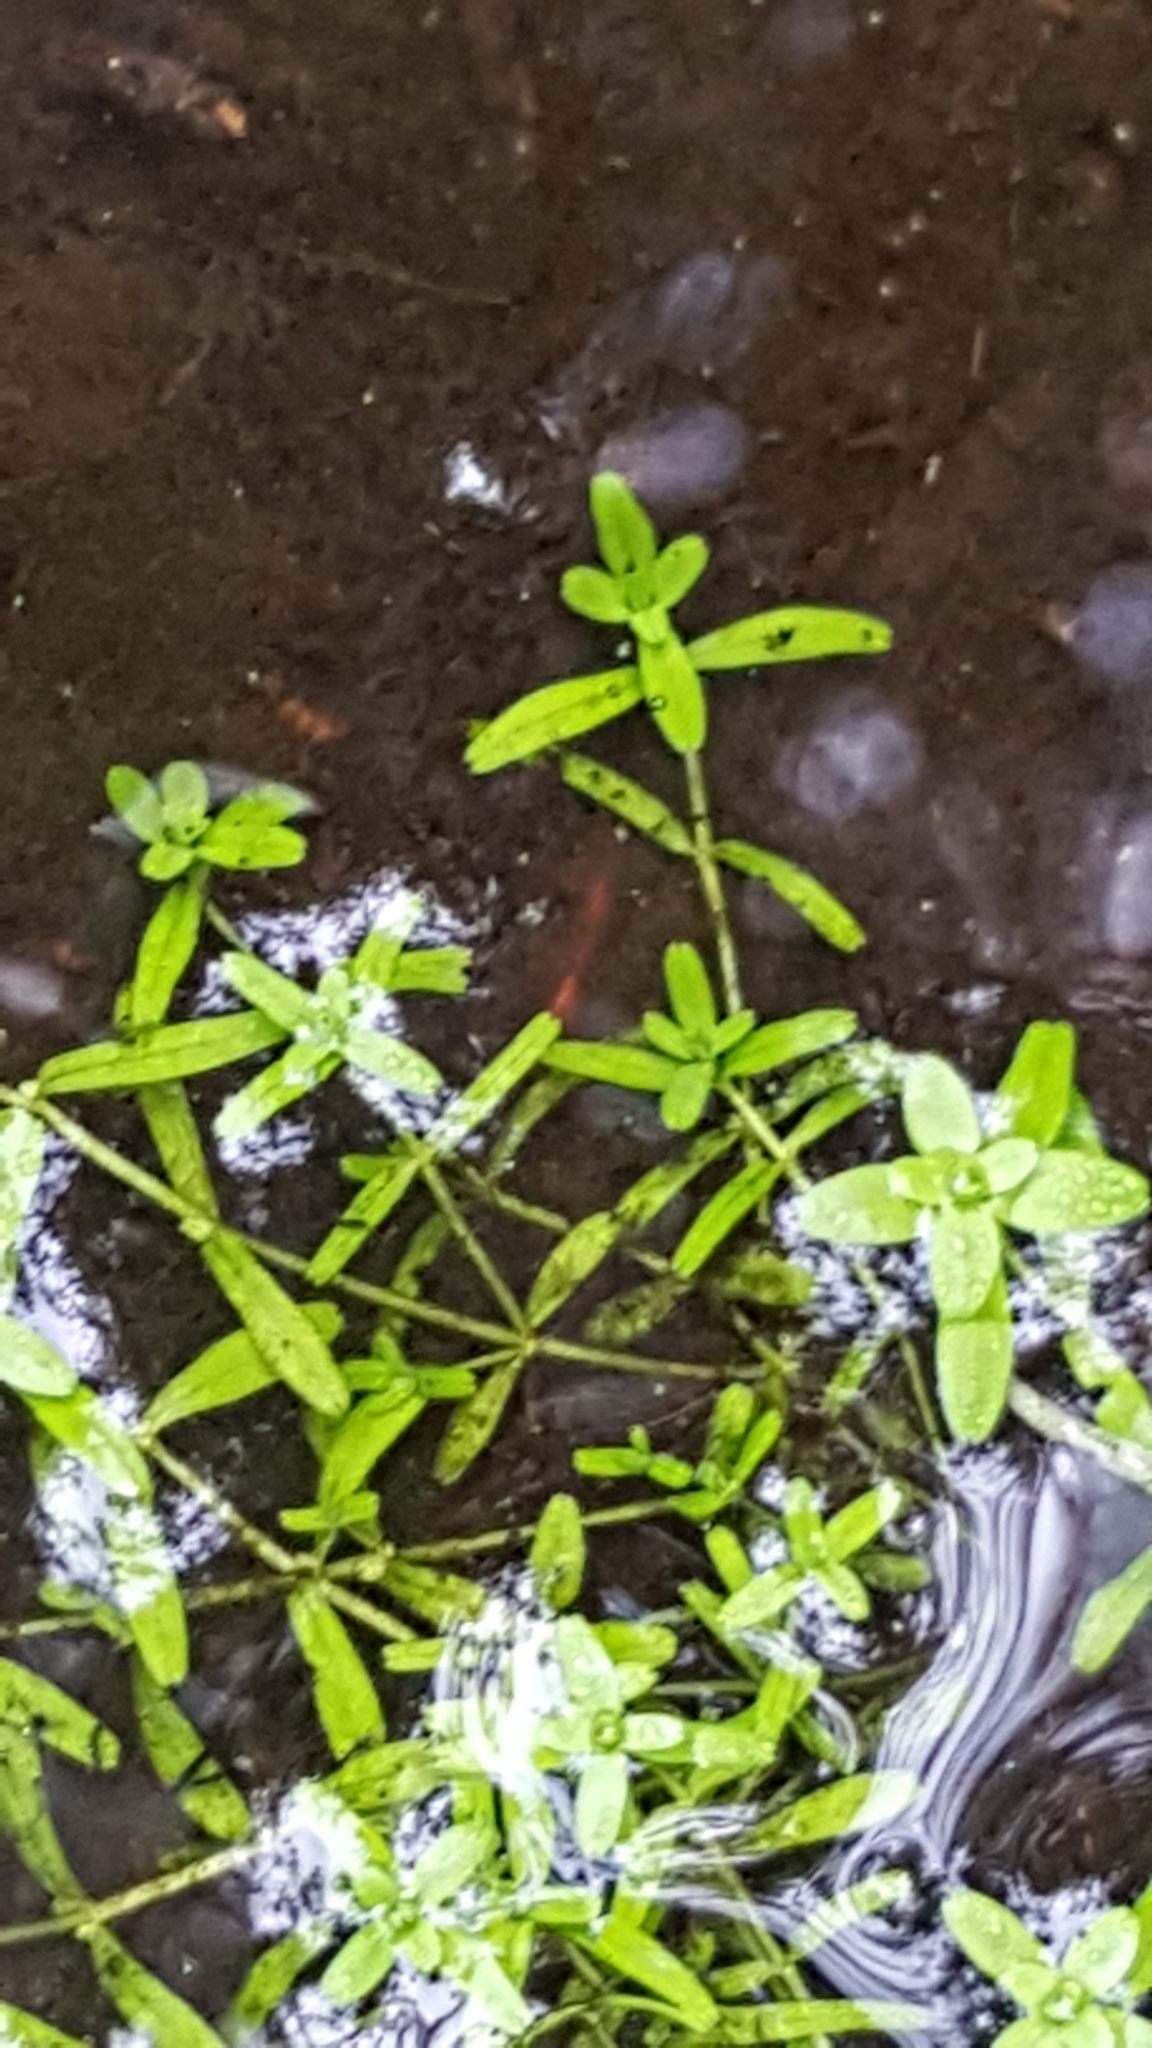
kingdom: Plantae
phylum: Tracheophyta
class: Magnoliopsida
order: Lamiales
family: Plantaginaceae
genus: Callitriche
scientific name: Callitriche palustris
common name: Spring water-starwort
